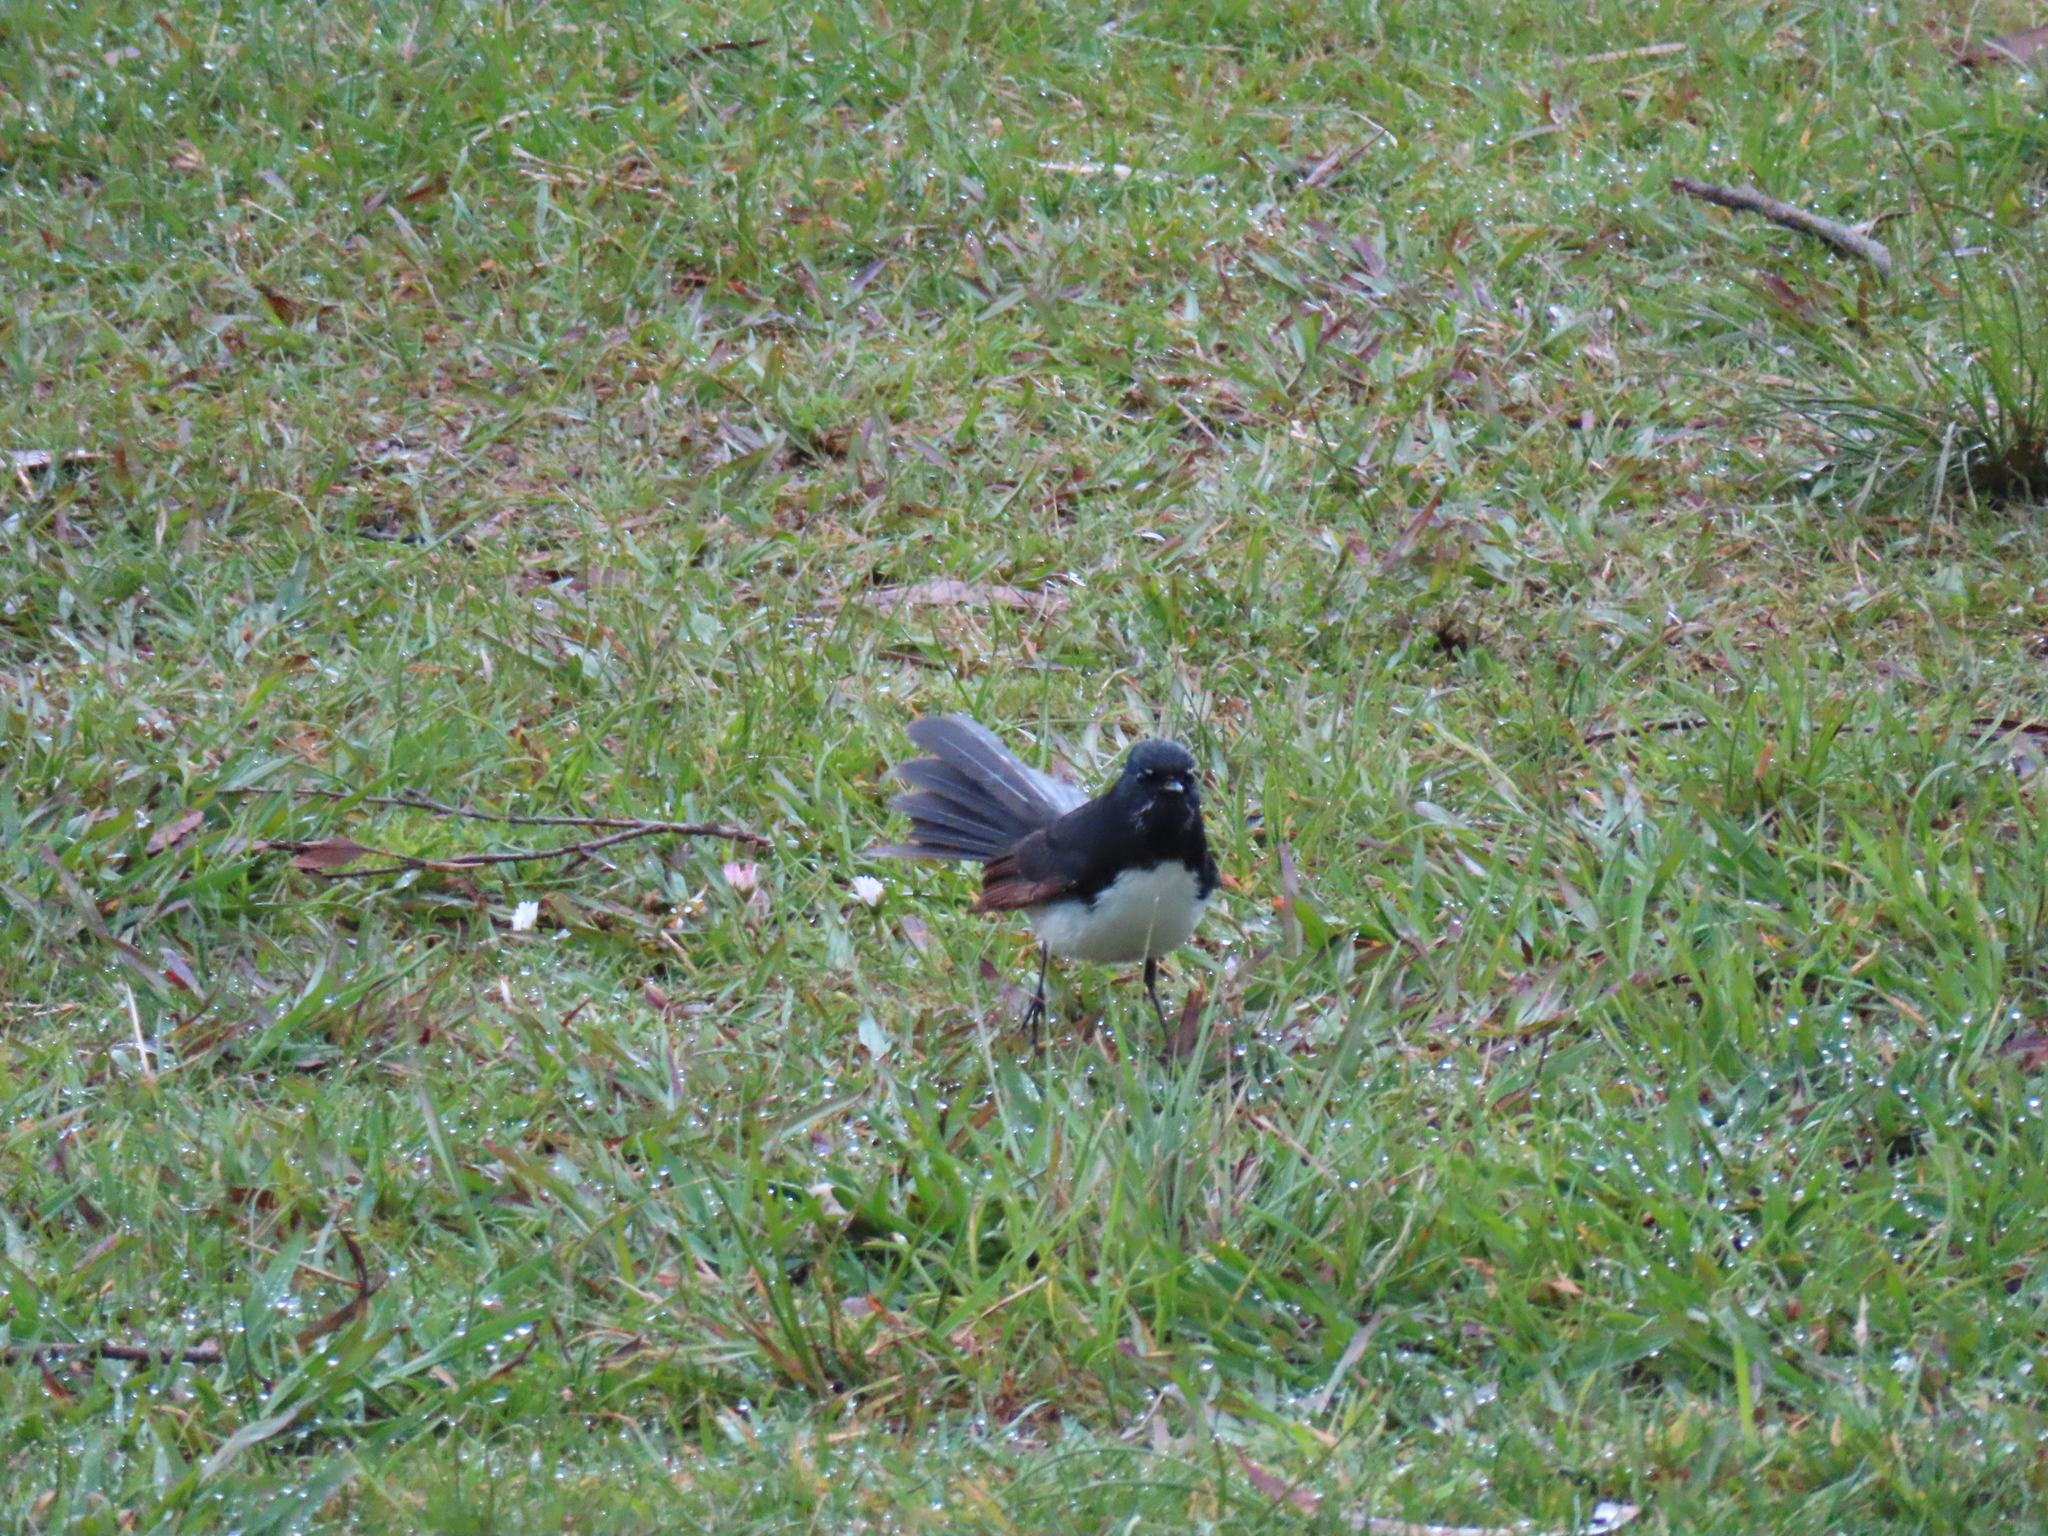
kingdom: Animalia
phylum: Chordata
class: Aves
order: Passeriformes
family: Rhipiduridae
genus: Rhipidura
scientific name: Rhipidura leucophrys
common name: Willie wagtail
